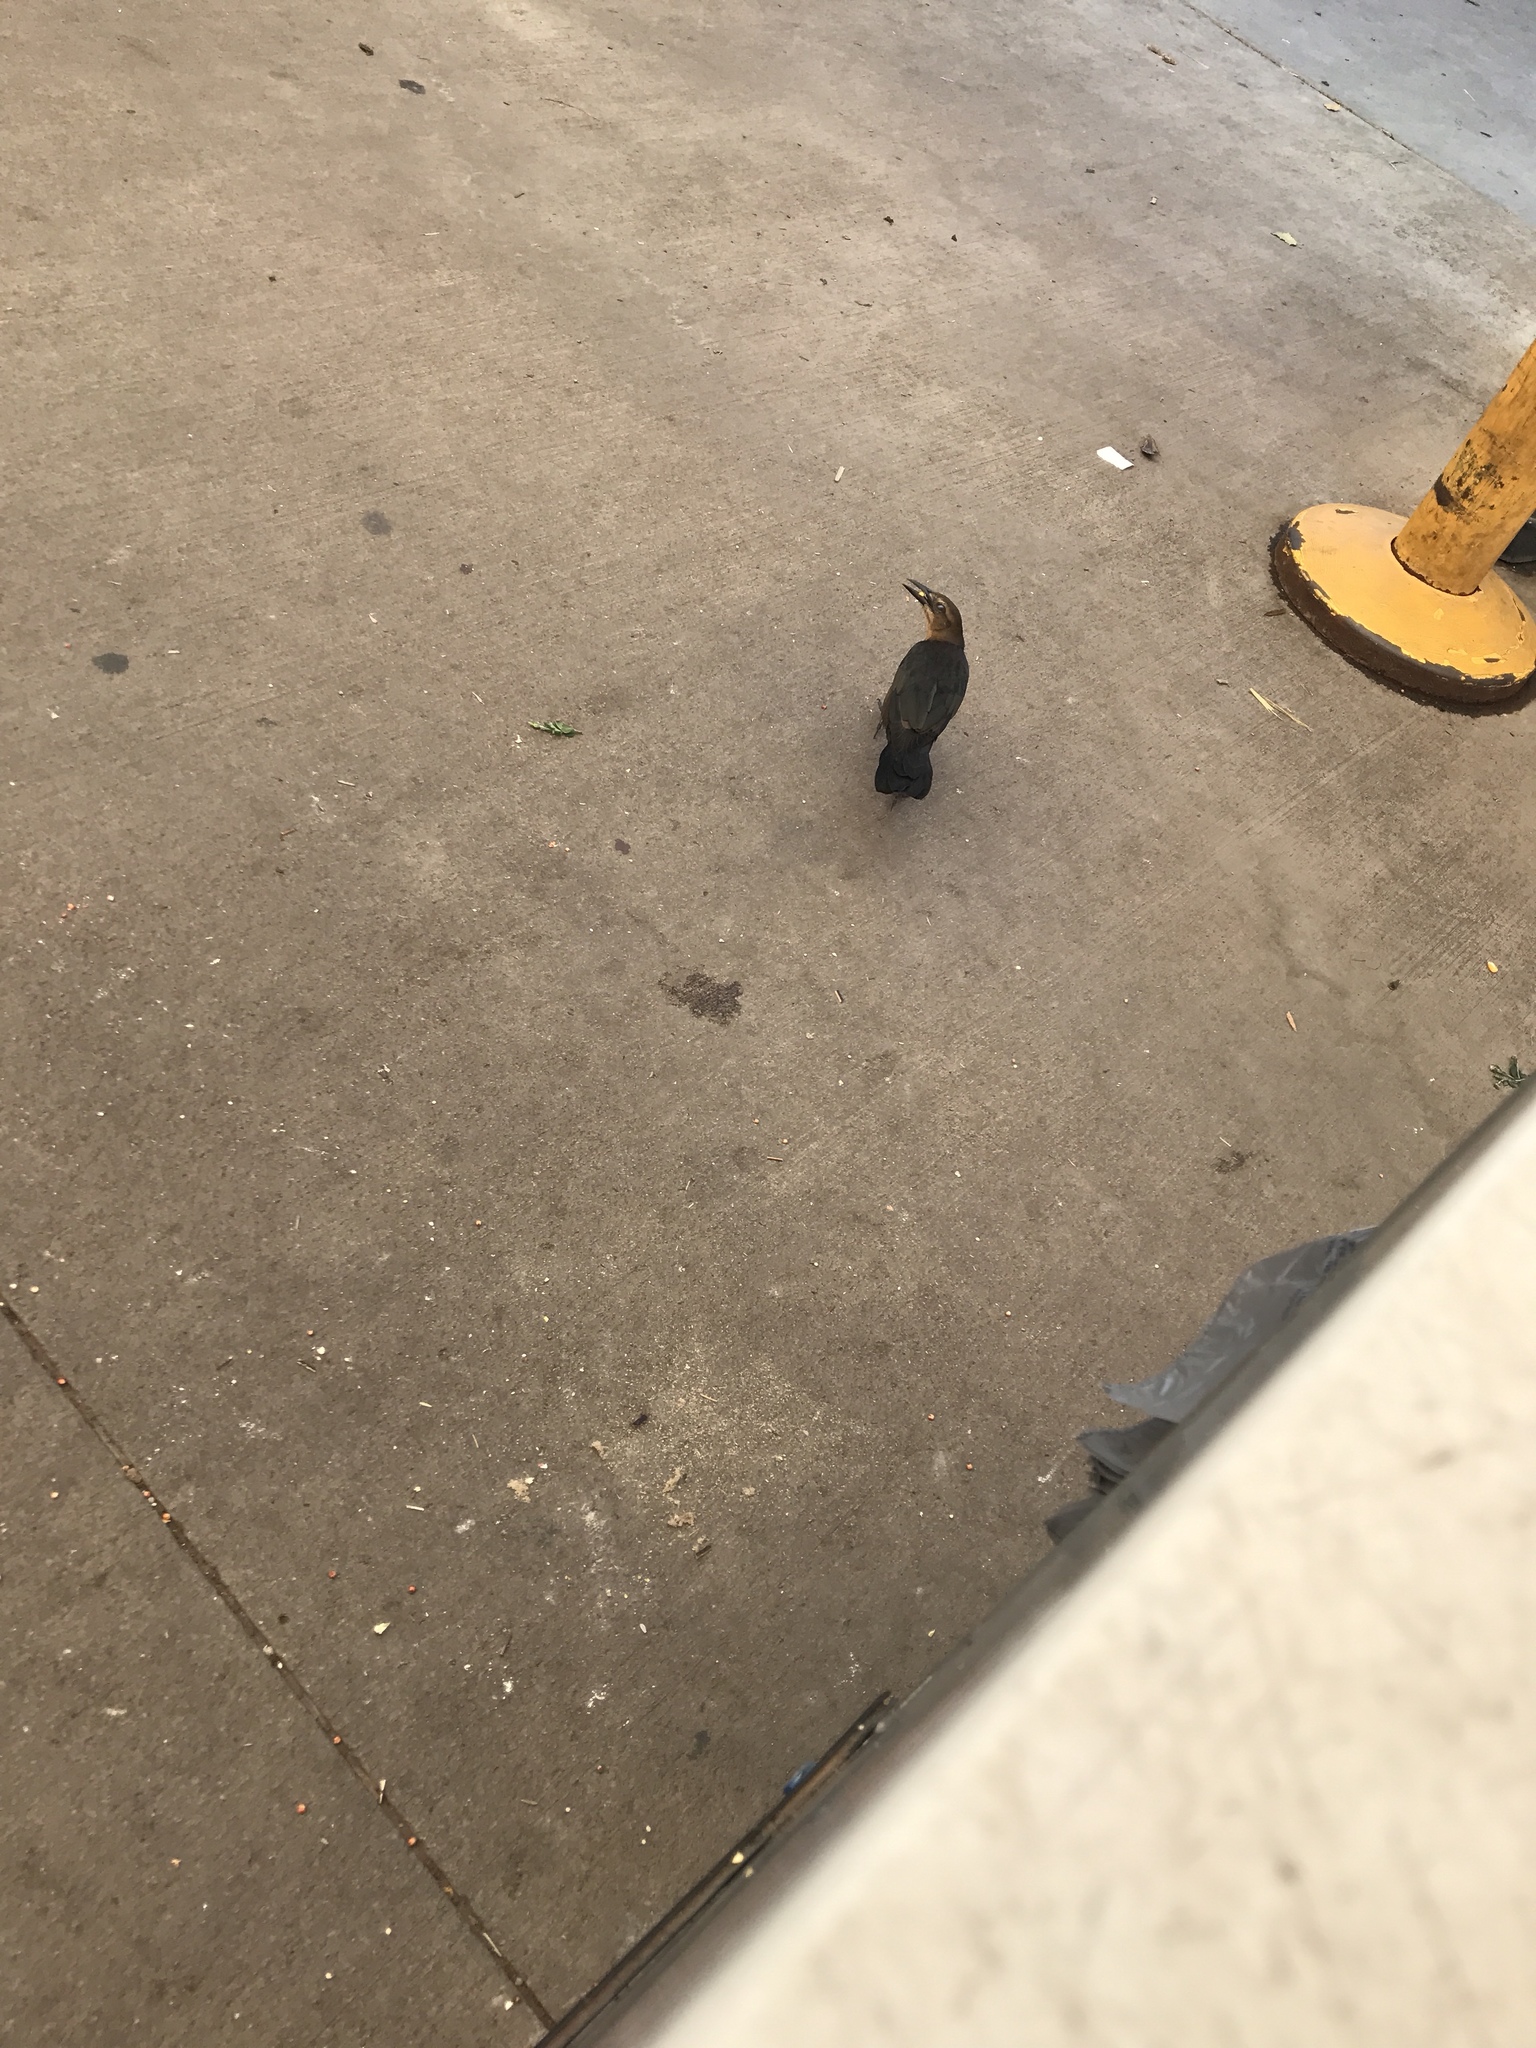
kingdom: Animalia
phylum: Chordata
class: Aves
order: Passeriformes
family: Icteridae
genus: Quiscalus
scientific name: Quiscalus mexicanus
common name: Great-tailed grackle
